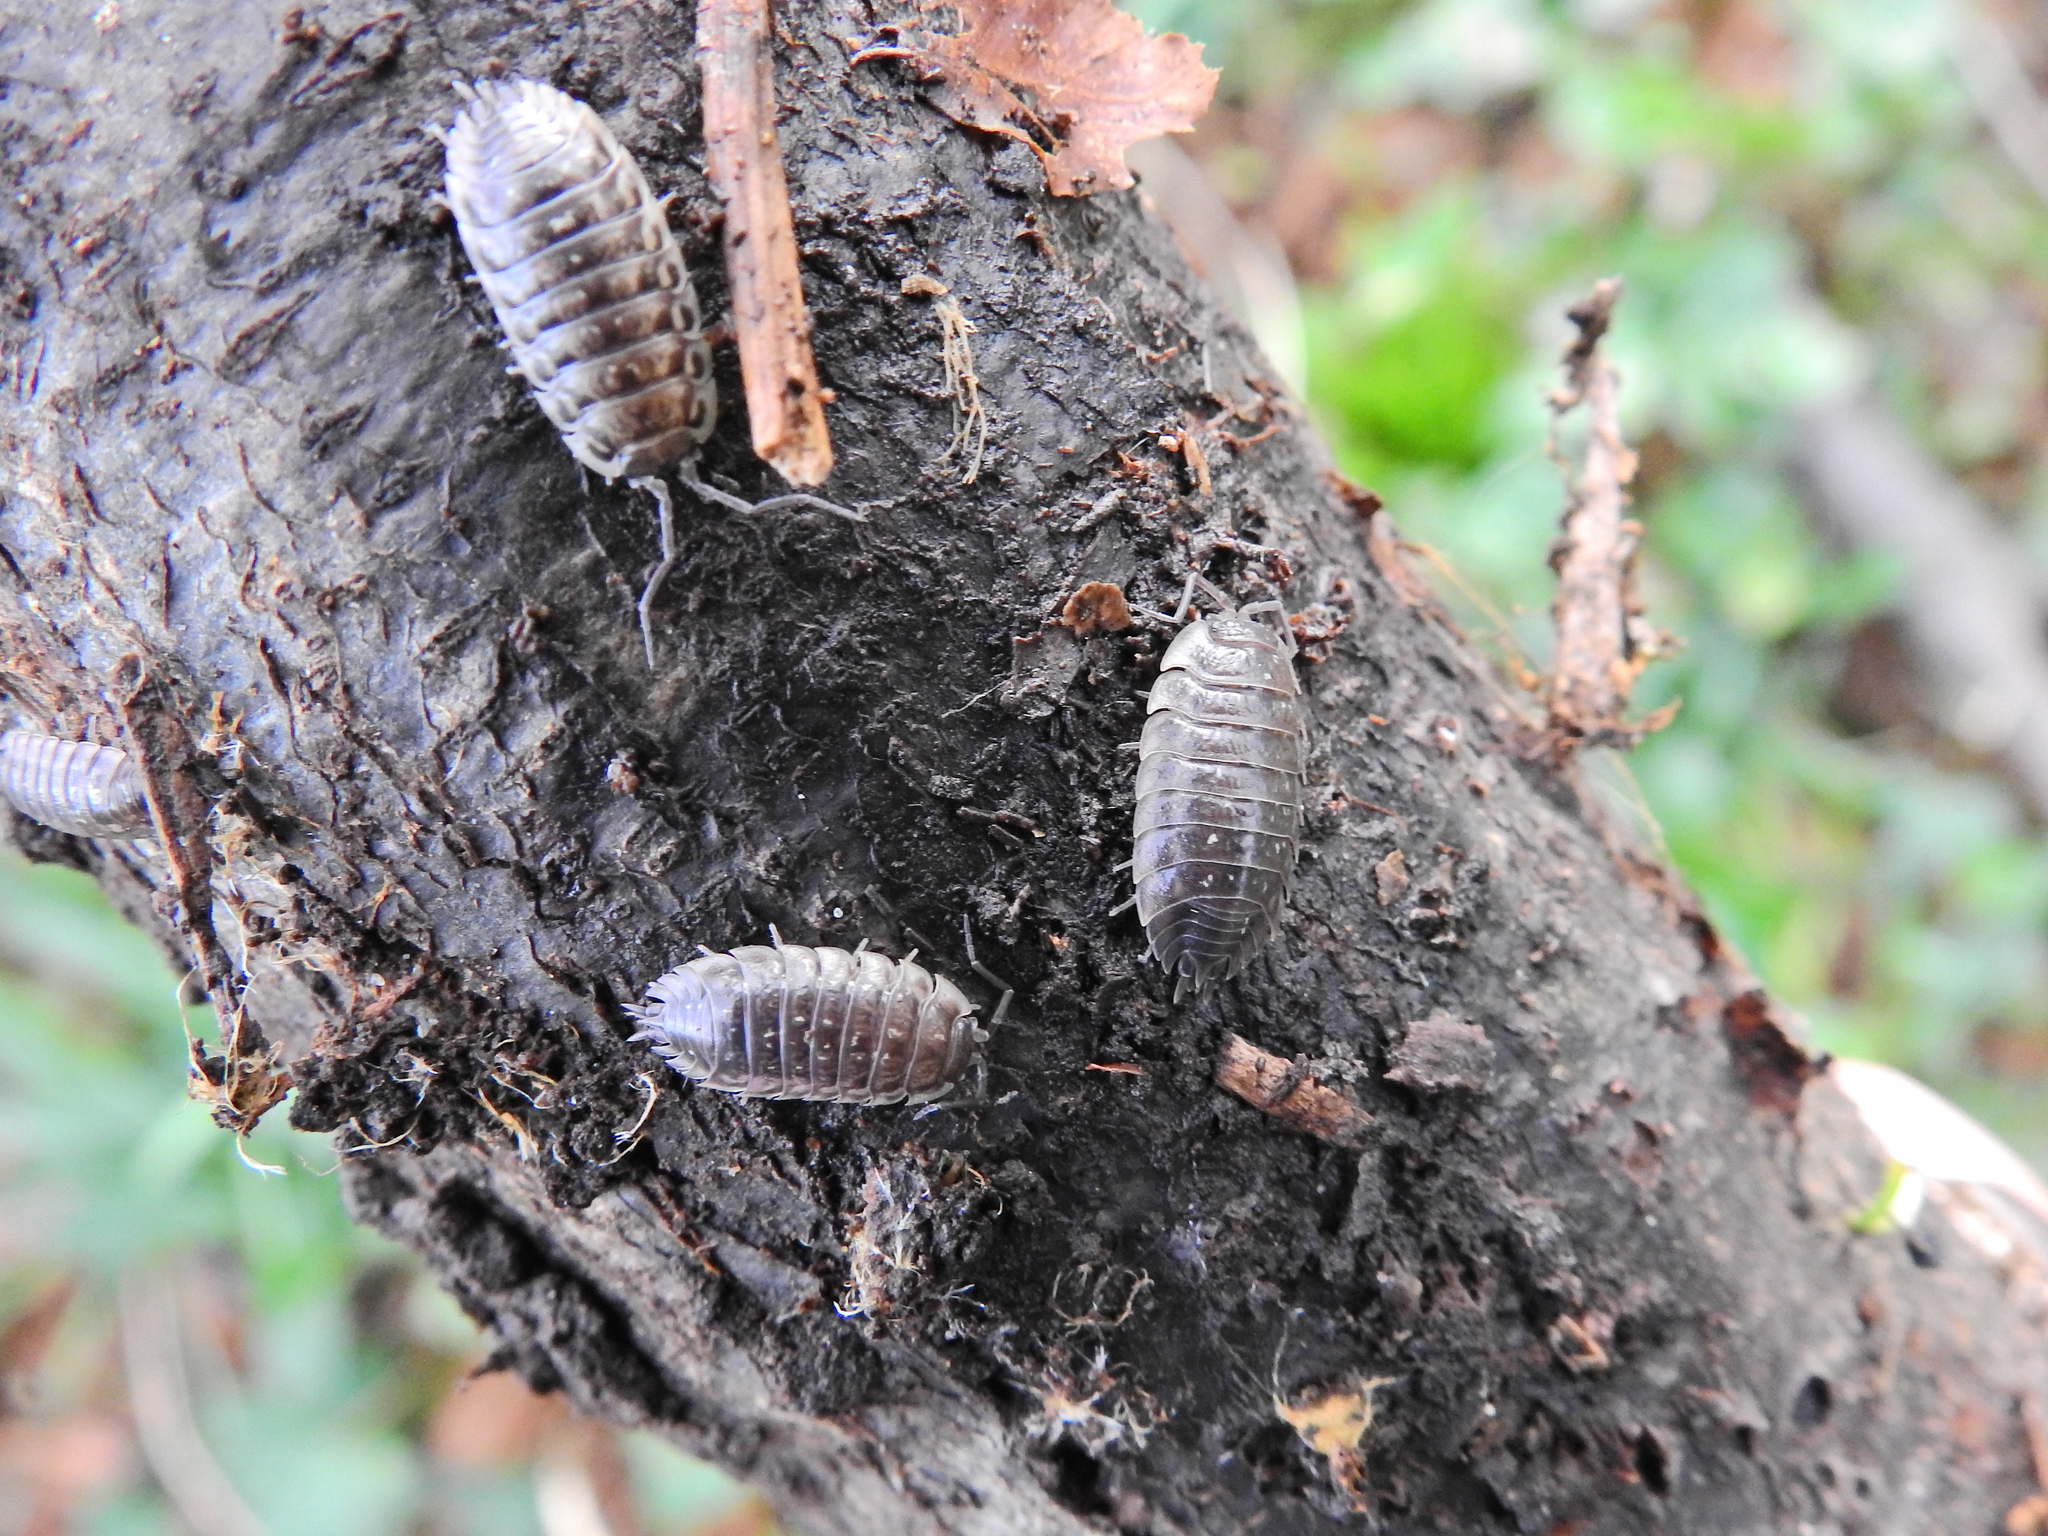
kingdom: Animalia
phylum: Arthropoda
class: Malacostraca
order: Isopoda
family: Oniscidae
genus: Oniscus
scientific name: Oniscus asellus
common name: Common shiny woodlouse
